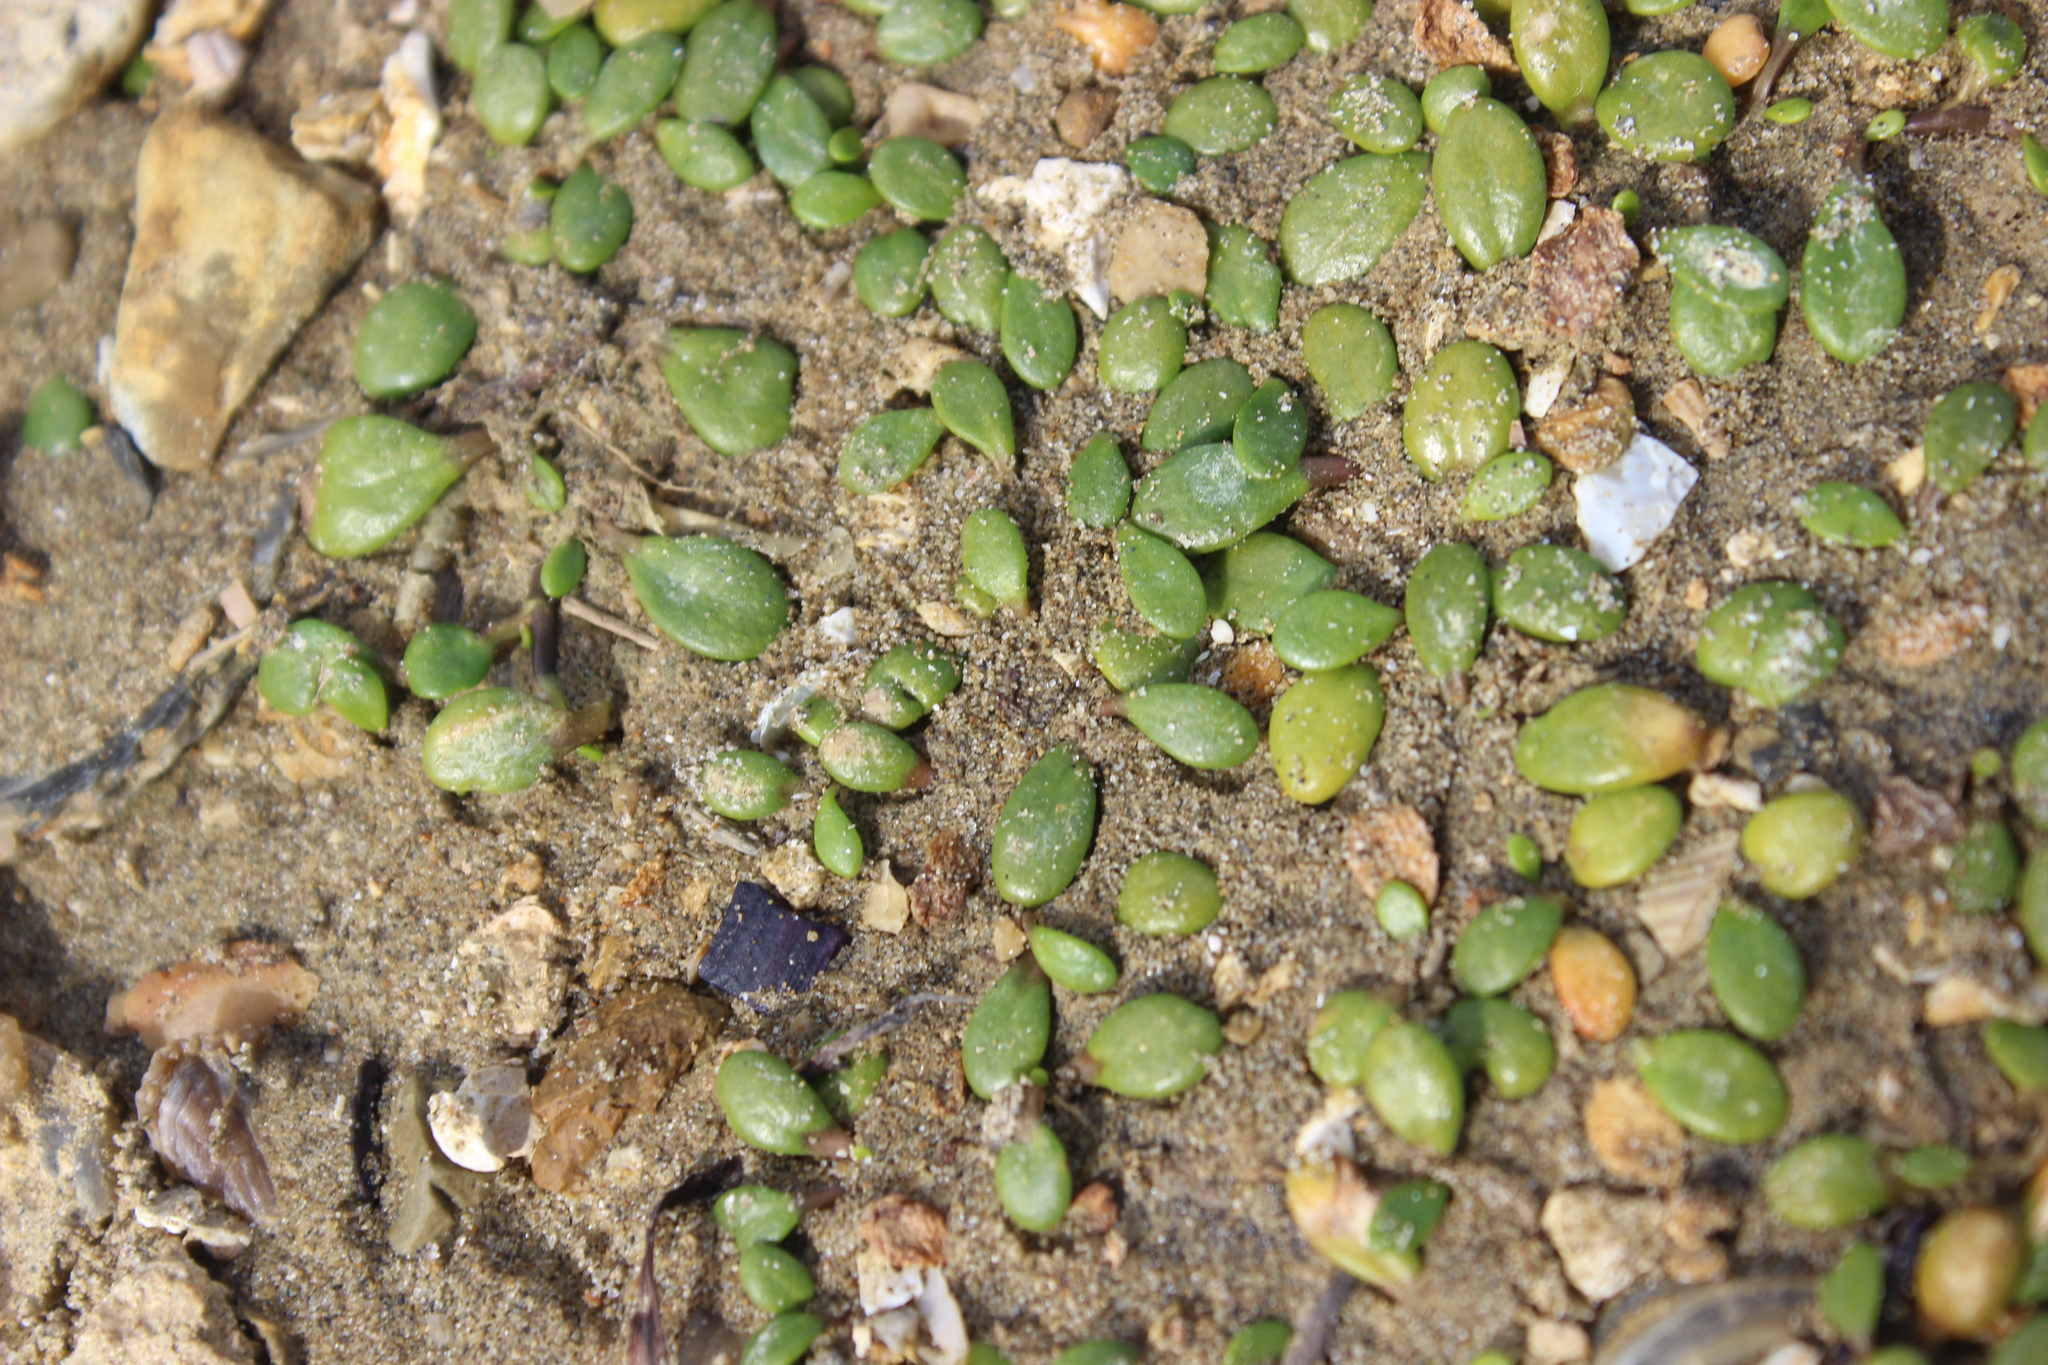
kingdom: Plantae
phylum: Tracheophyta
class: Magnoliopsida
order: Asterales
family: Goodeniaceae
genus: Goodenia
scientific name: Goodenia radicans
